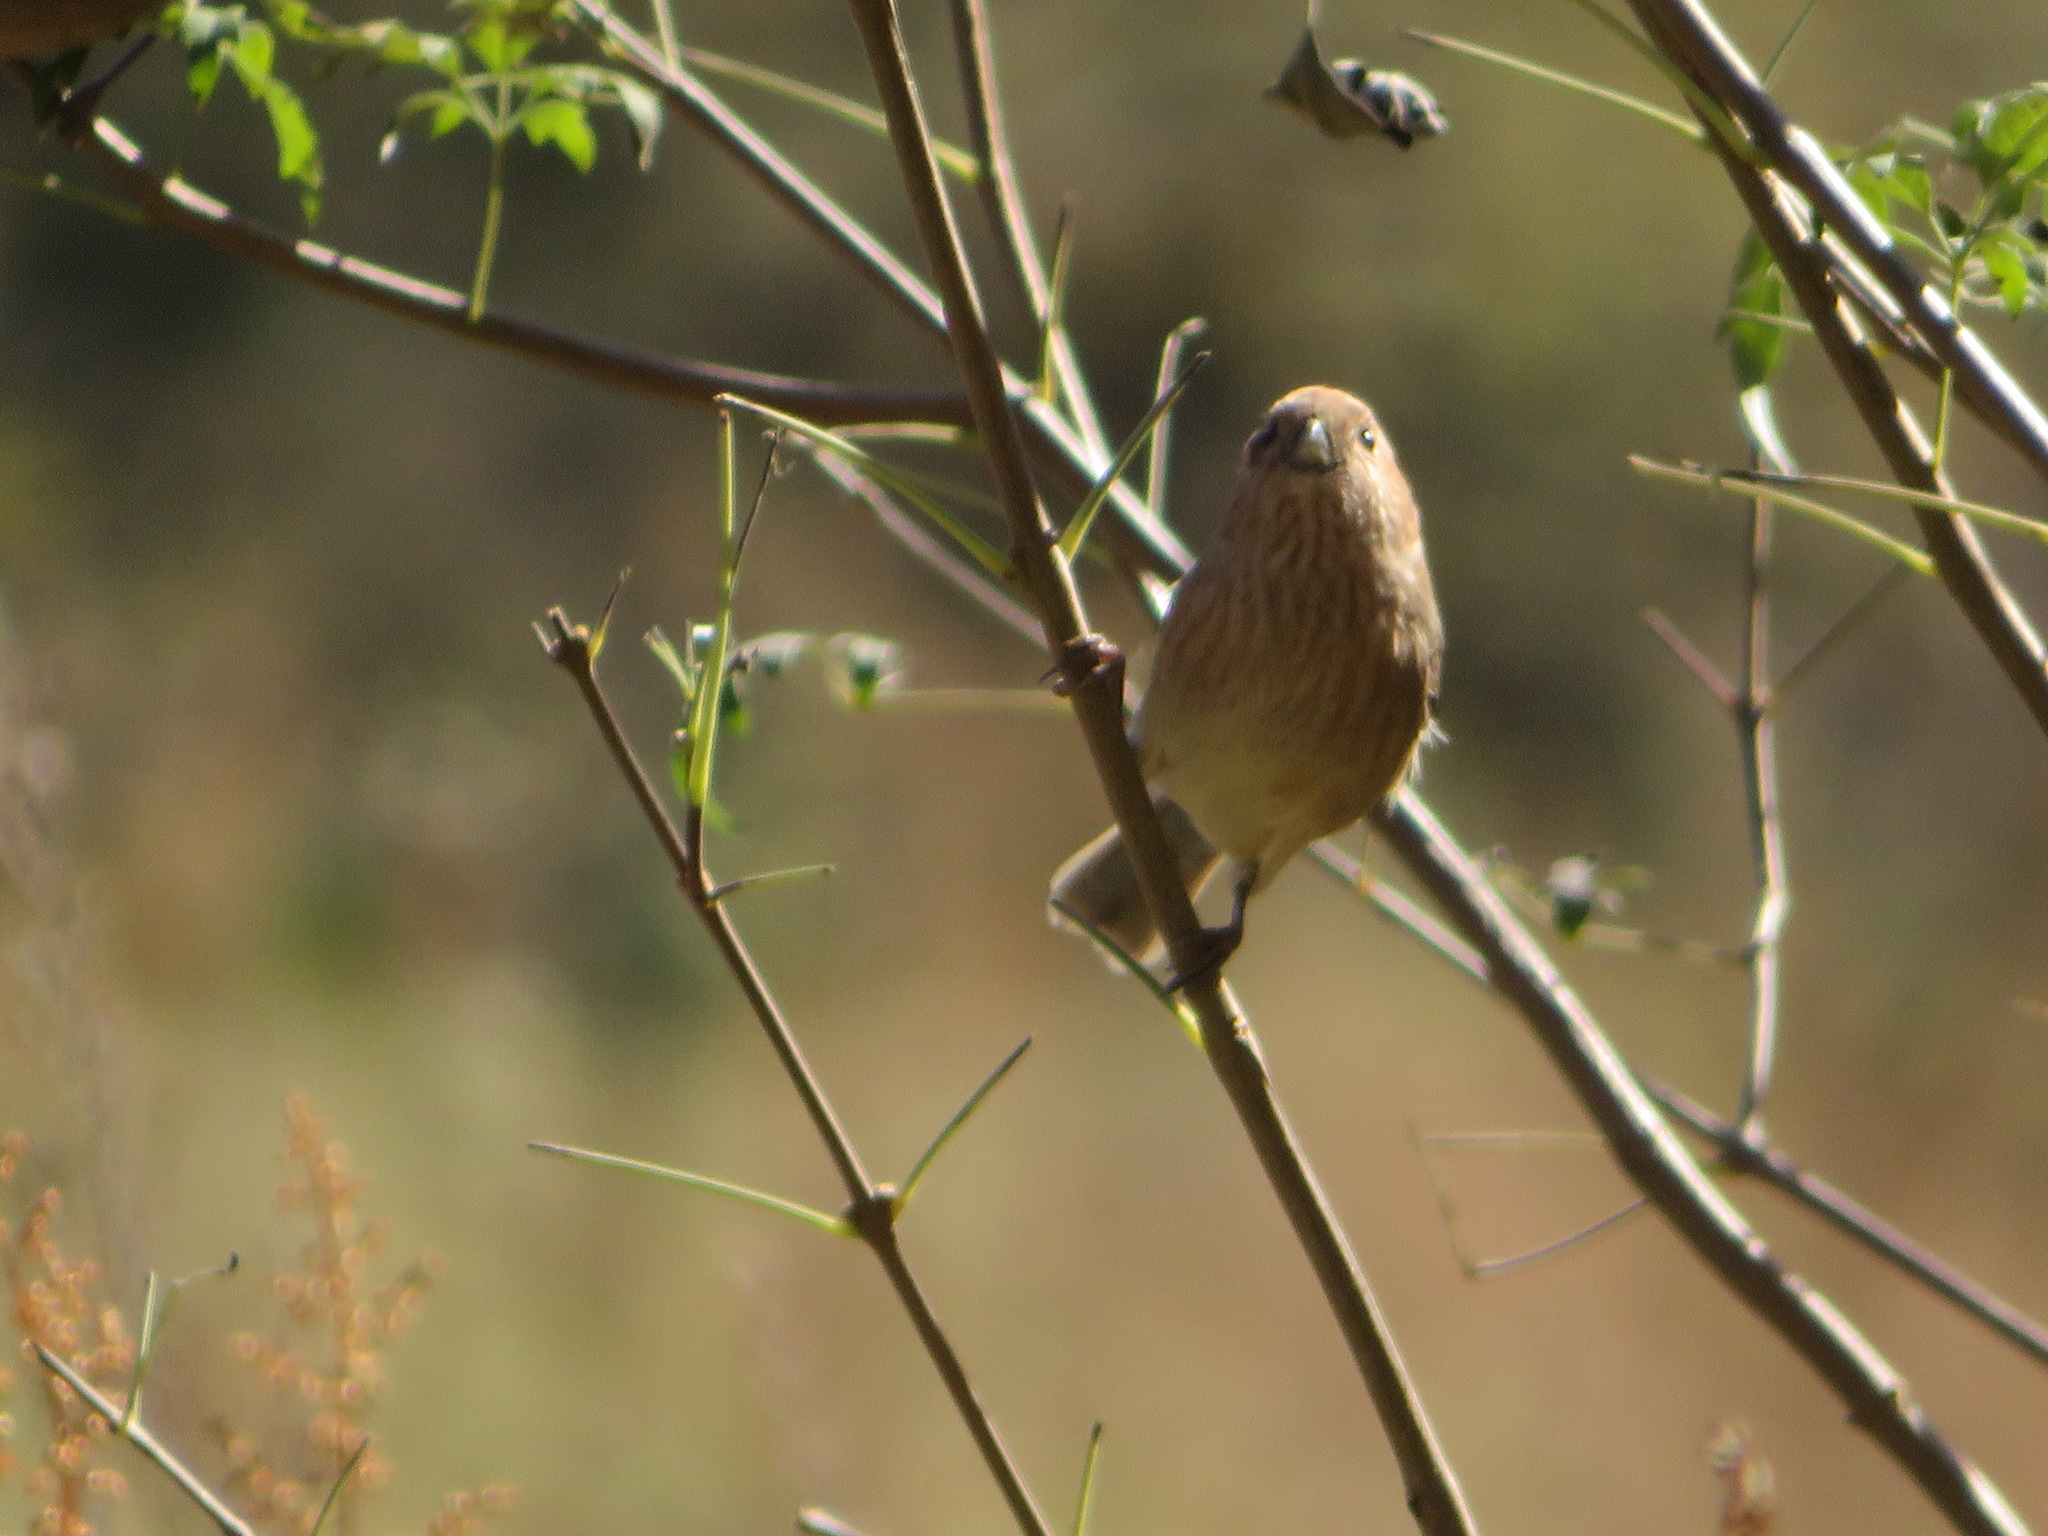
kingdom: Animalia
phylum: Chordata
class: Aves
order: Passeriformes
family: Sylviidae
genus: Sinosuthora
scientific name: Sinosuthora webbiana
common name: Vinous-throated parrotbill
